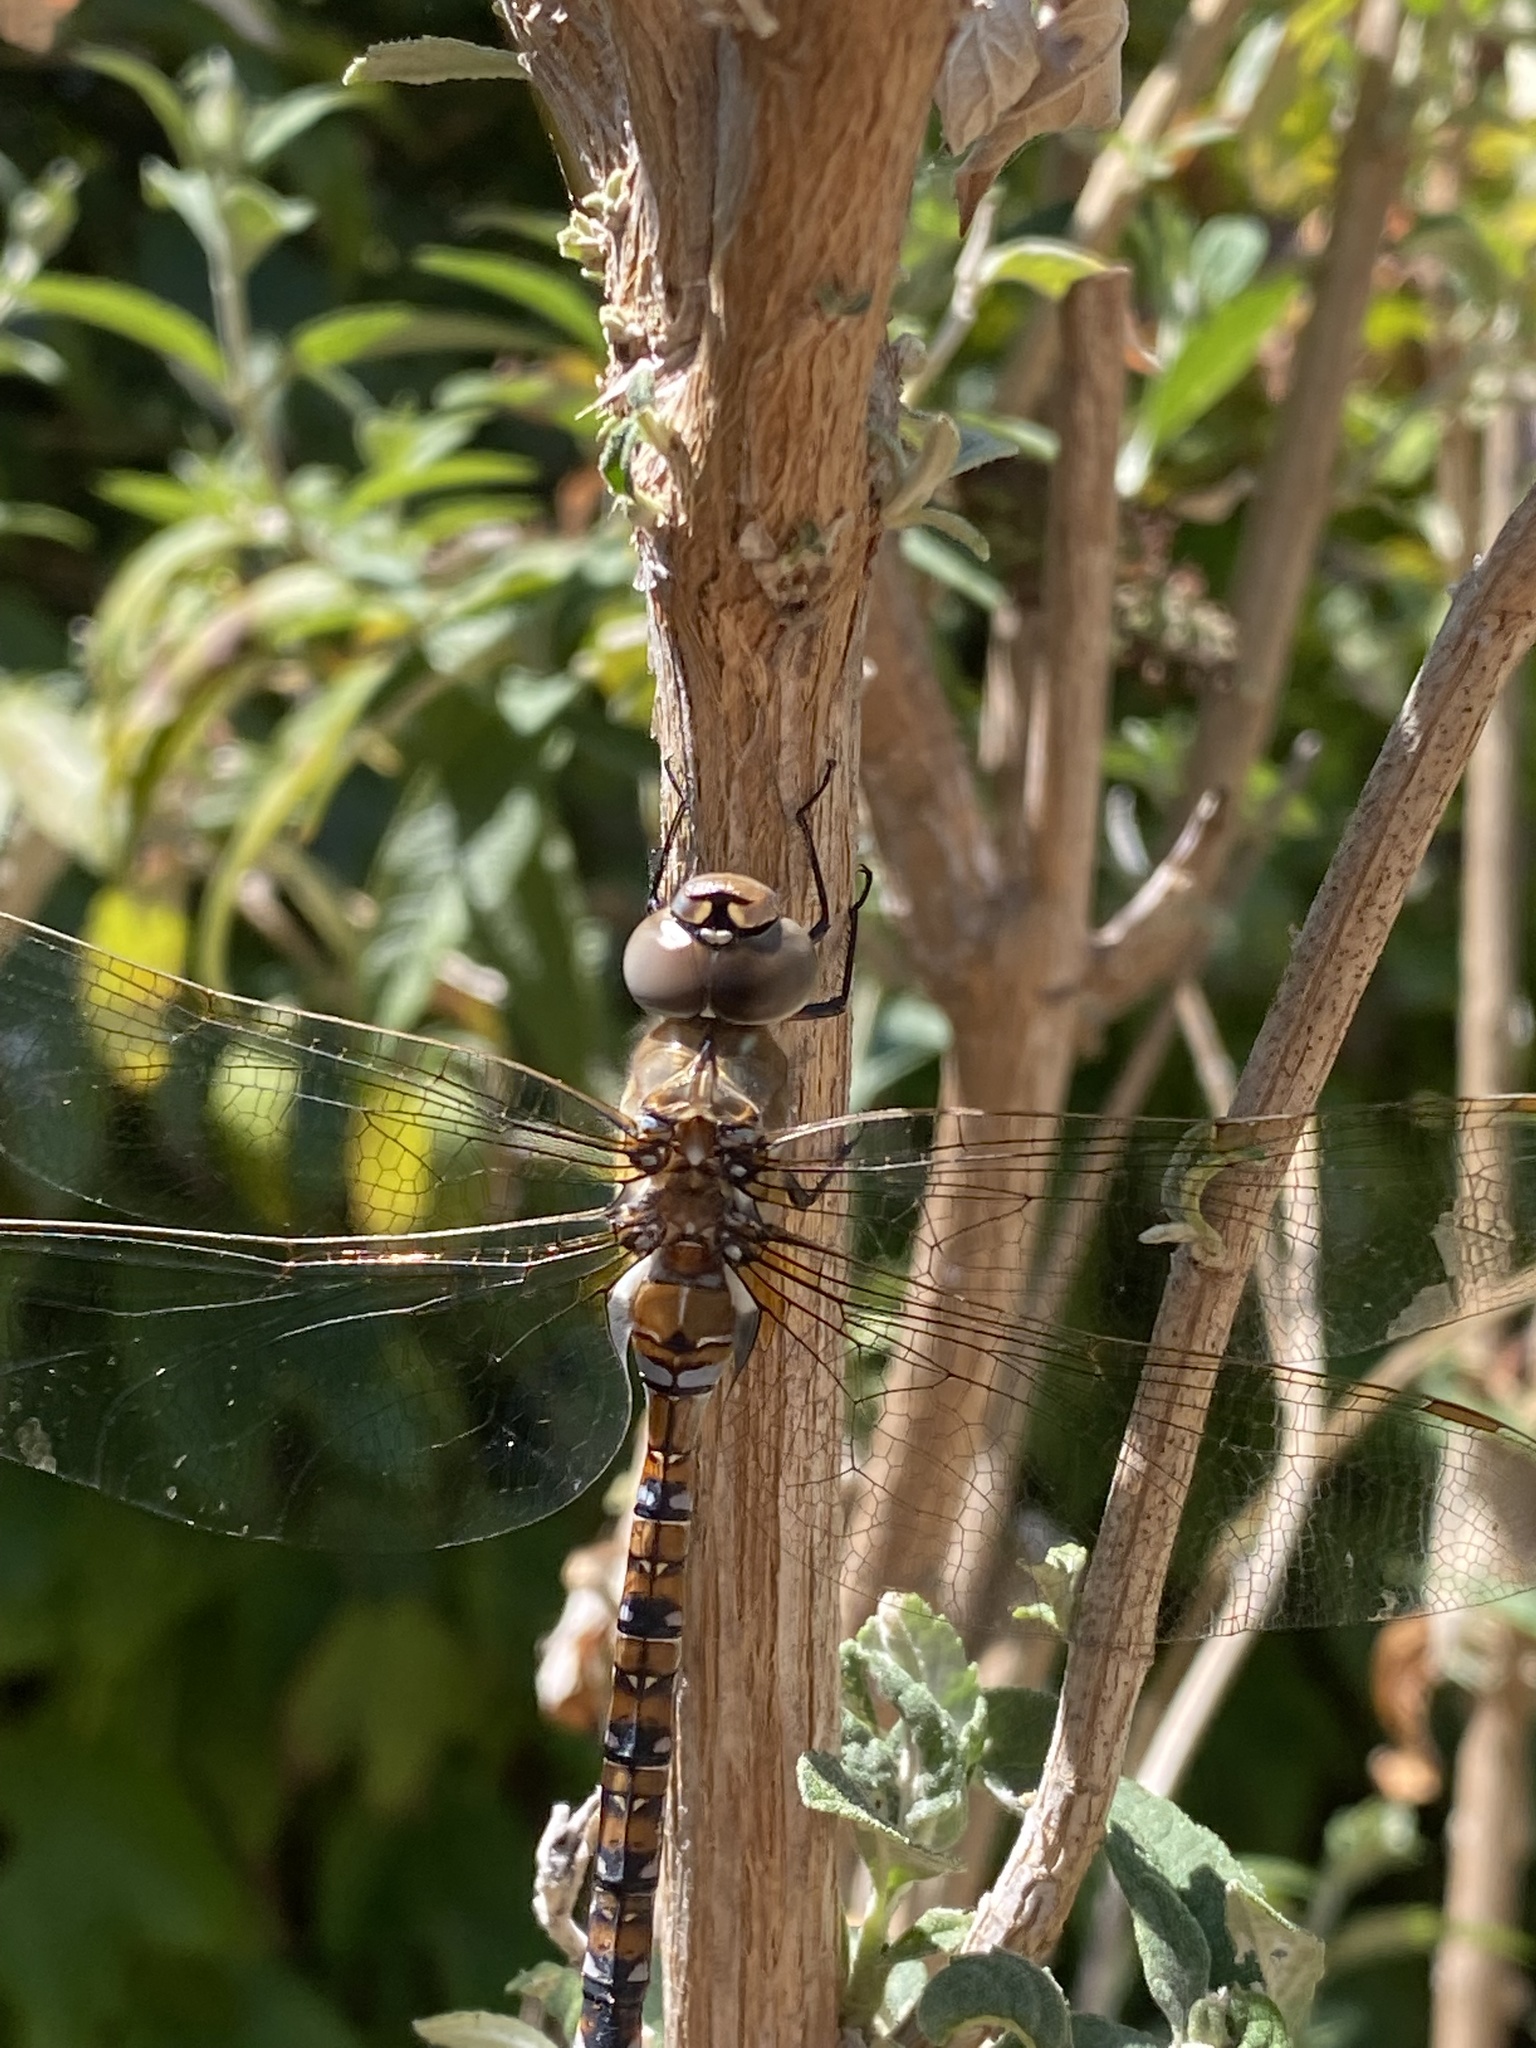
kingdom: Animalia
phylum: Arthropoda
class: Insecta
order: Odonata
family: Aeshnidae
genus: Rhionaeschna
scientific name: Rhionaeschna multicolor
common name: Blue-eyed darner
